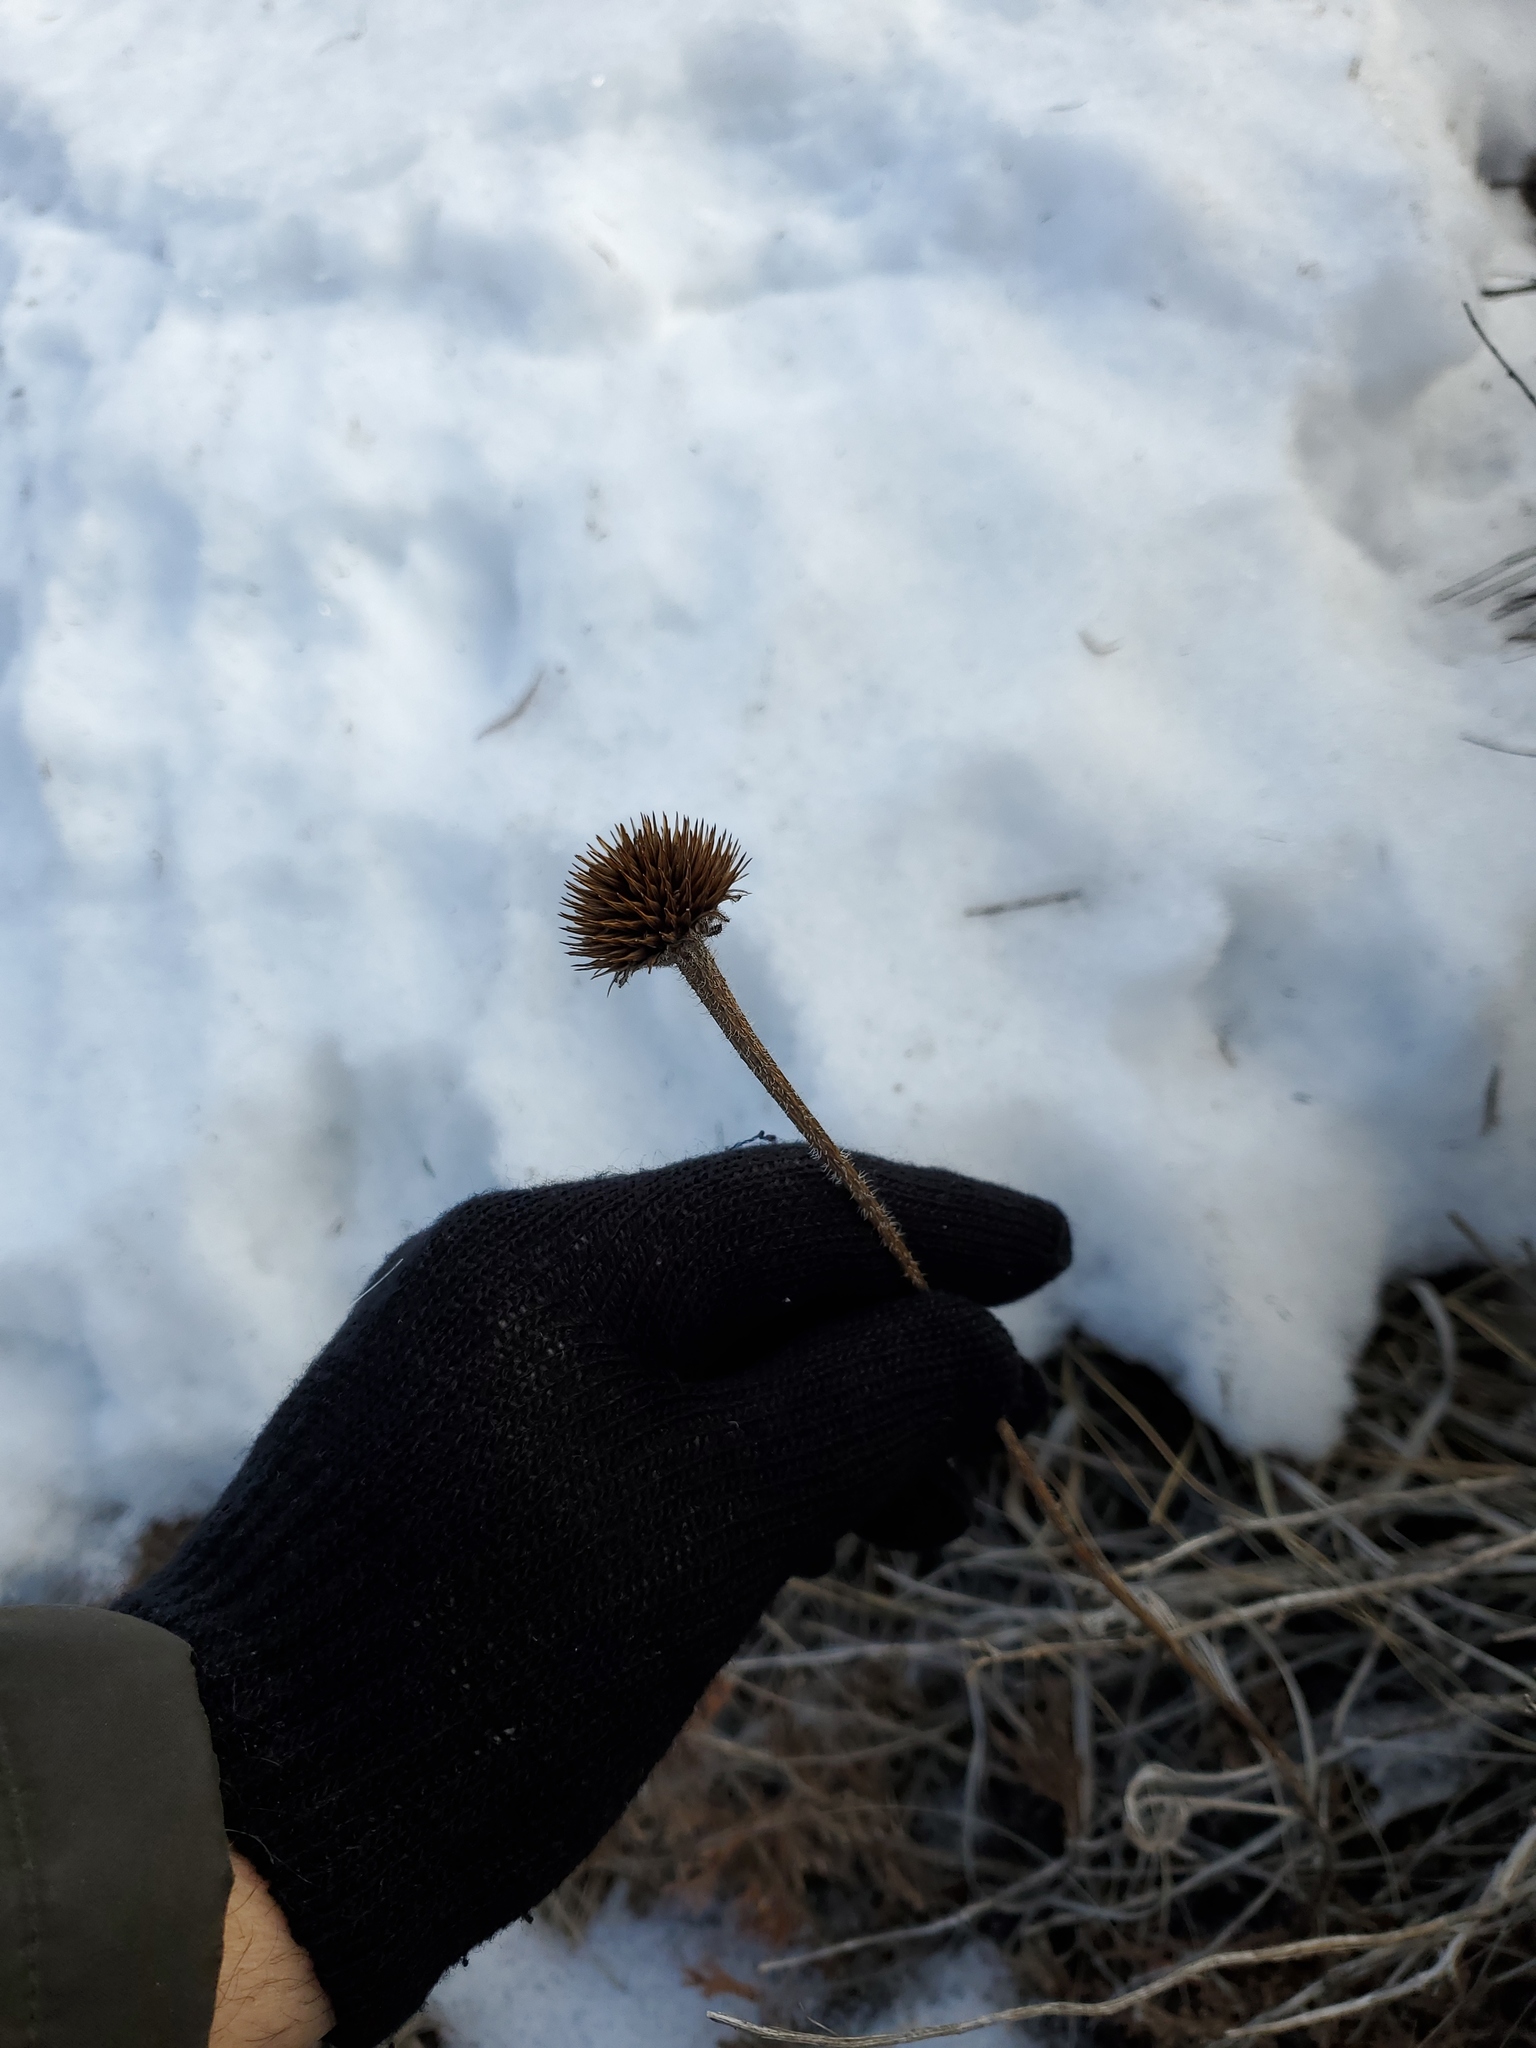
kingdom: Plantae
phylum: Tracheophyta
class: Magnoliopsida
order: Asterales
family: Asteraceae
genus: Echinacea
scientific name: Echinacea angustifolia
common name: Black-sampson echinacea
